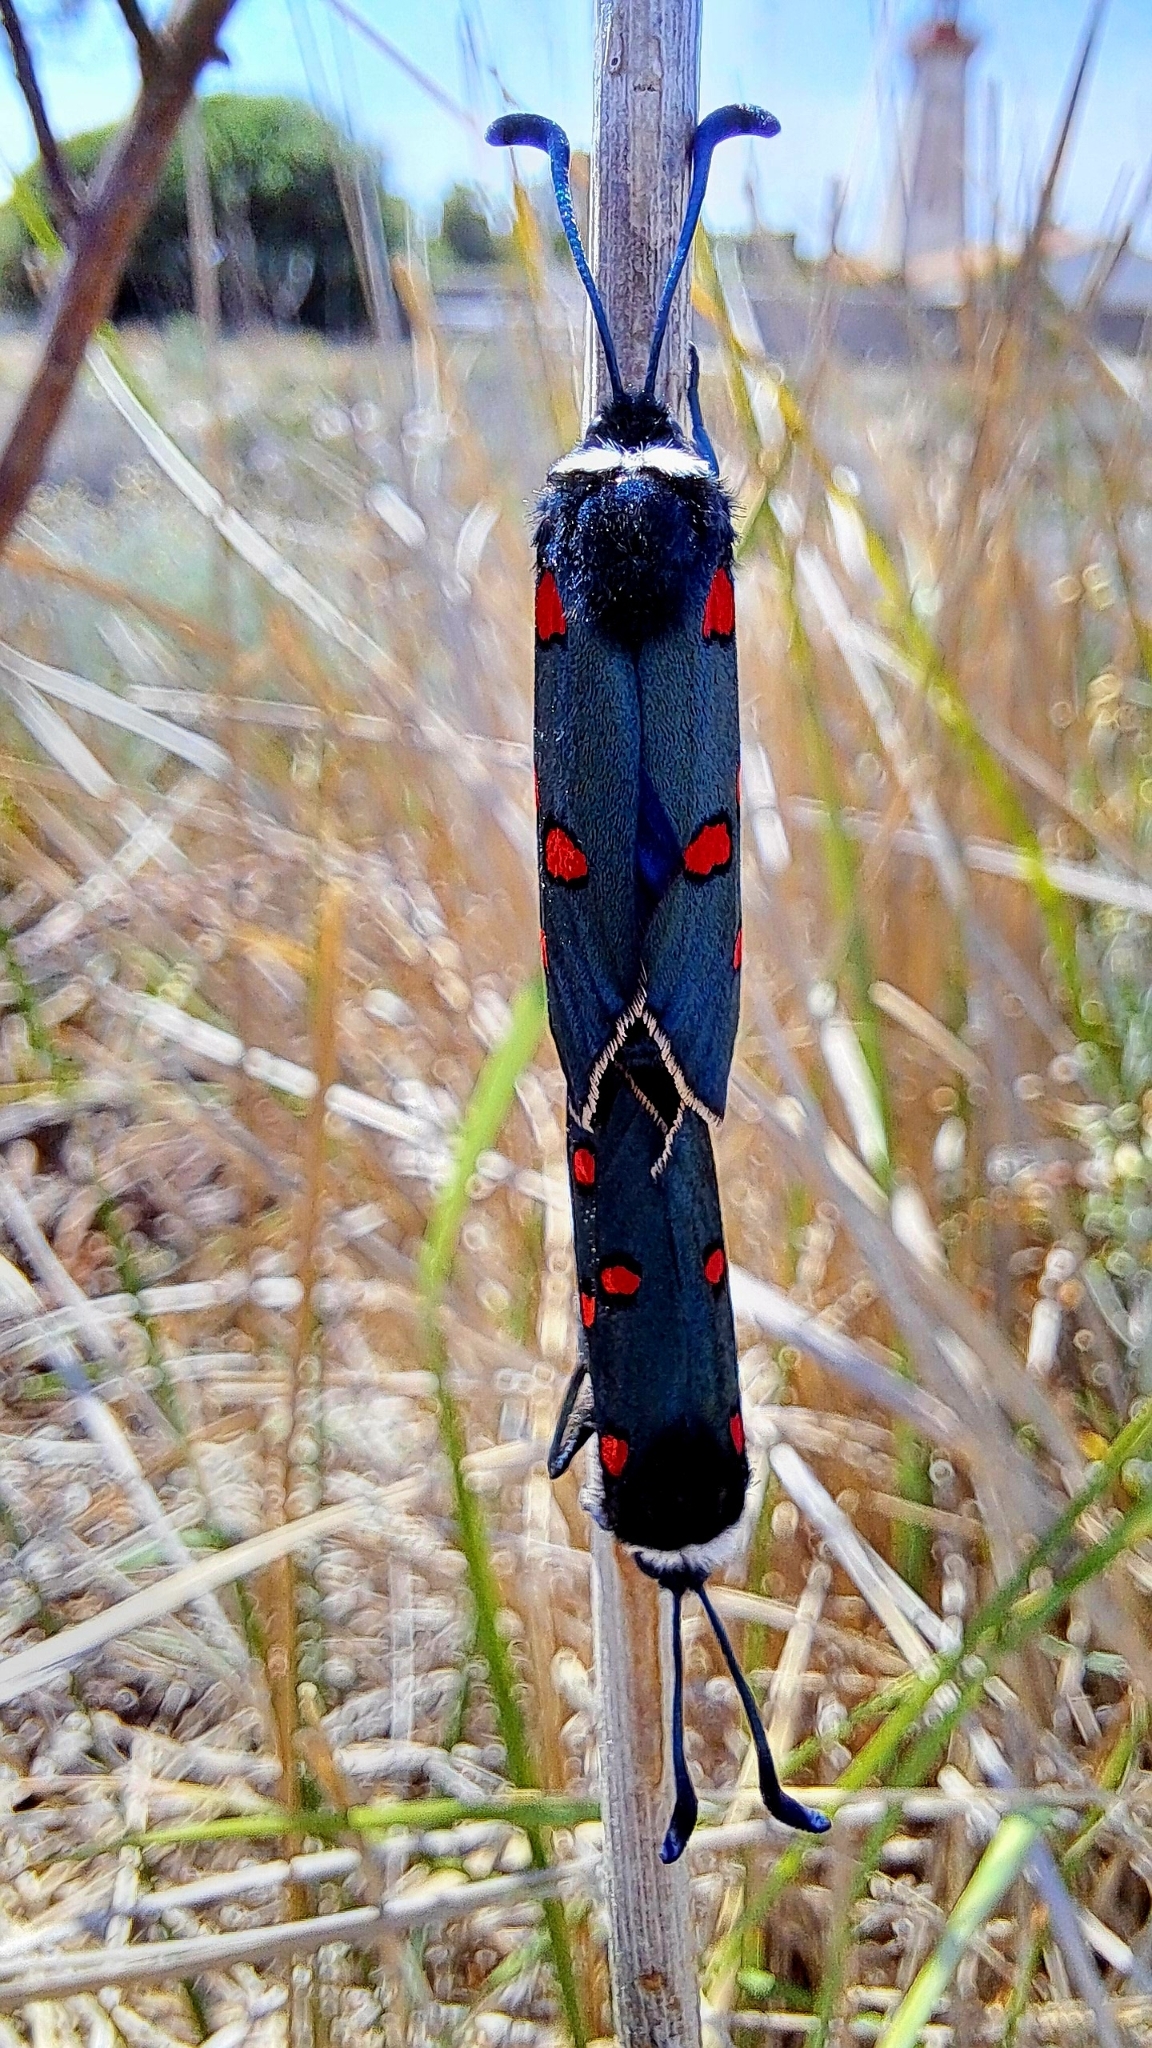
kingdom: Animalia
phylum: Arthropoda
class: Insecta
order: Lepidoptera
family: Zygaenidae
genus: Zygaena
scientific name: Zygaena lavandulae
